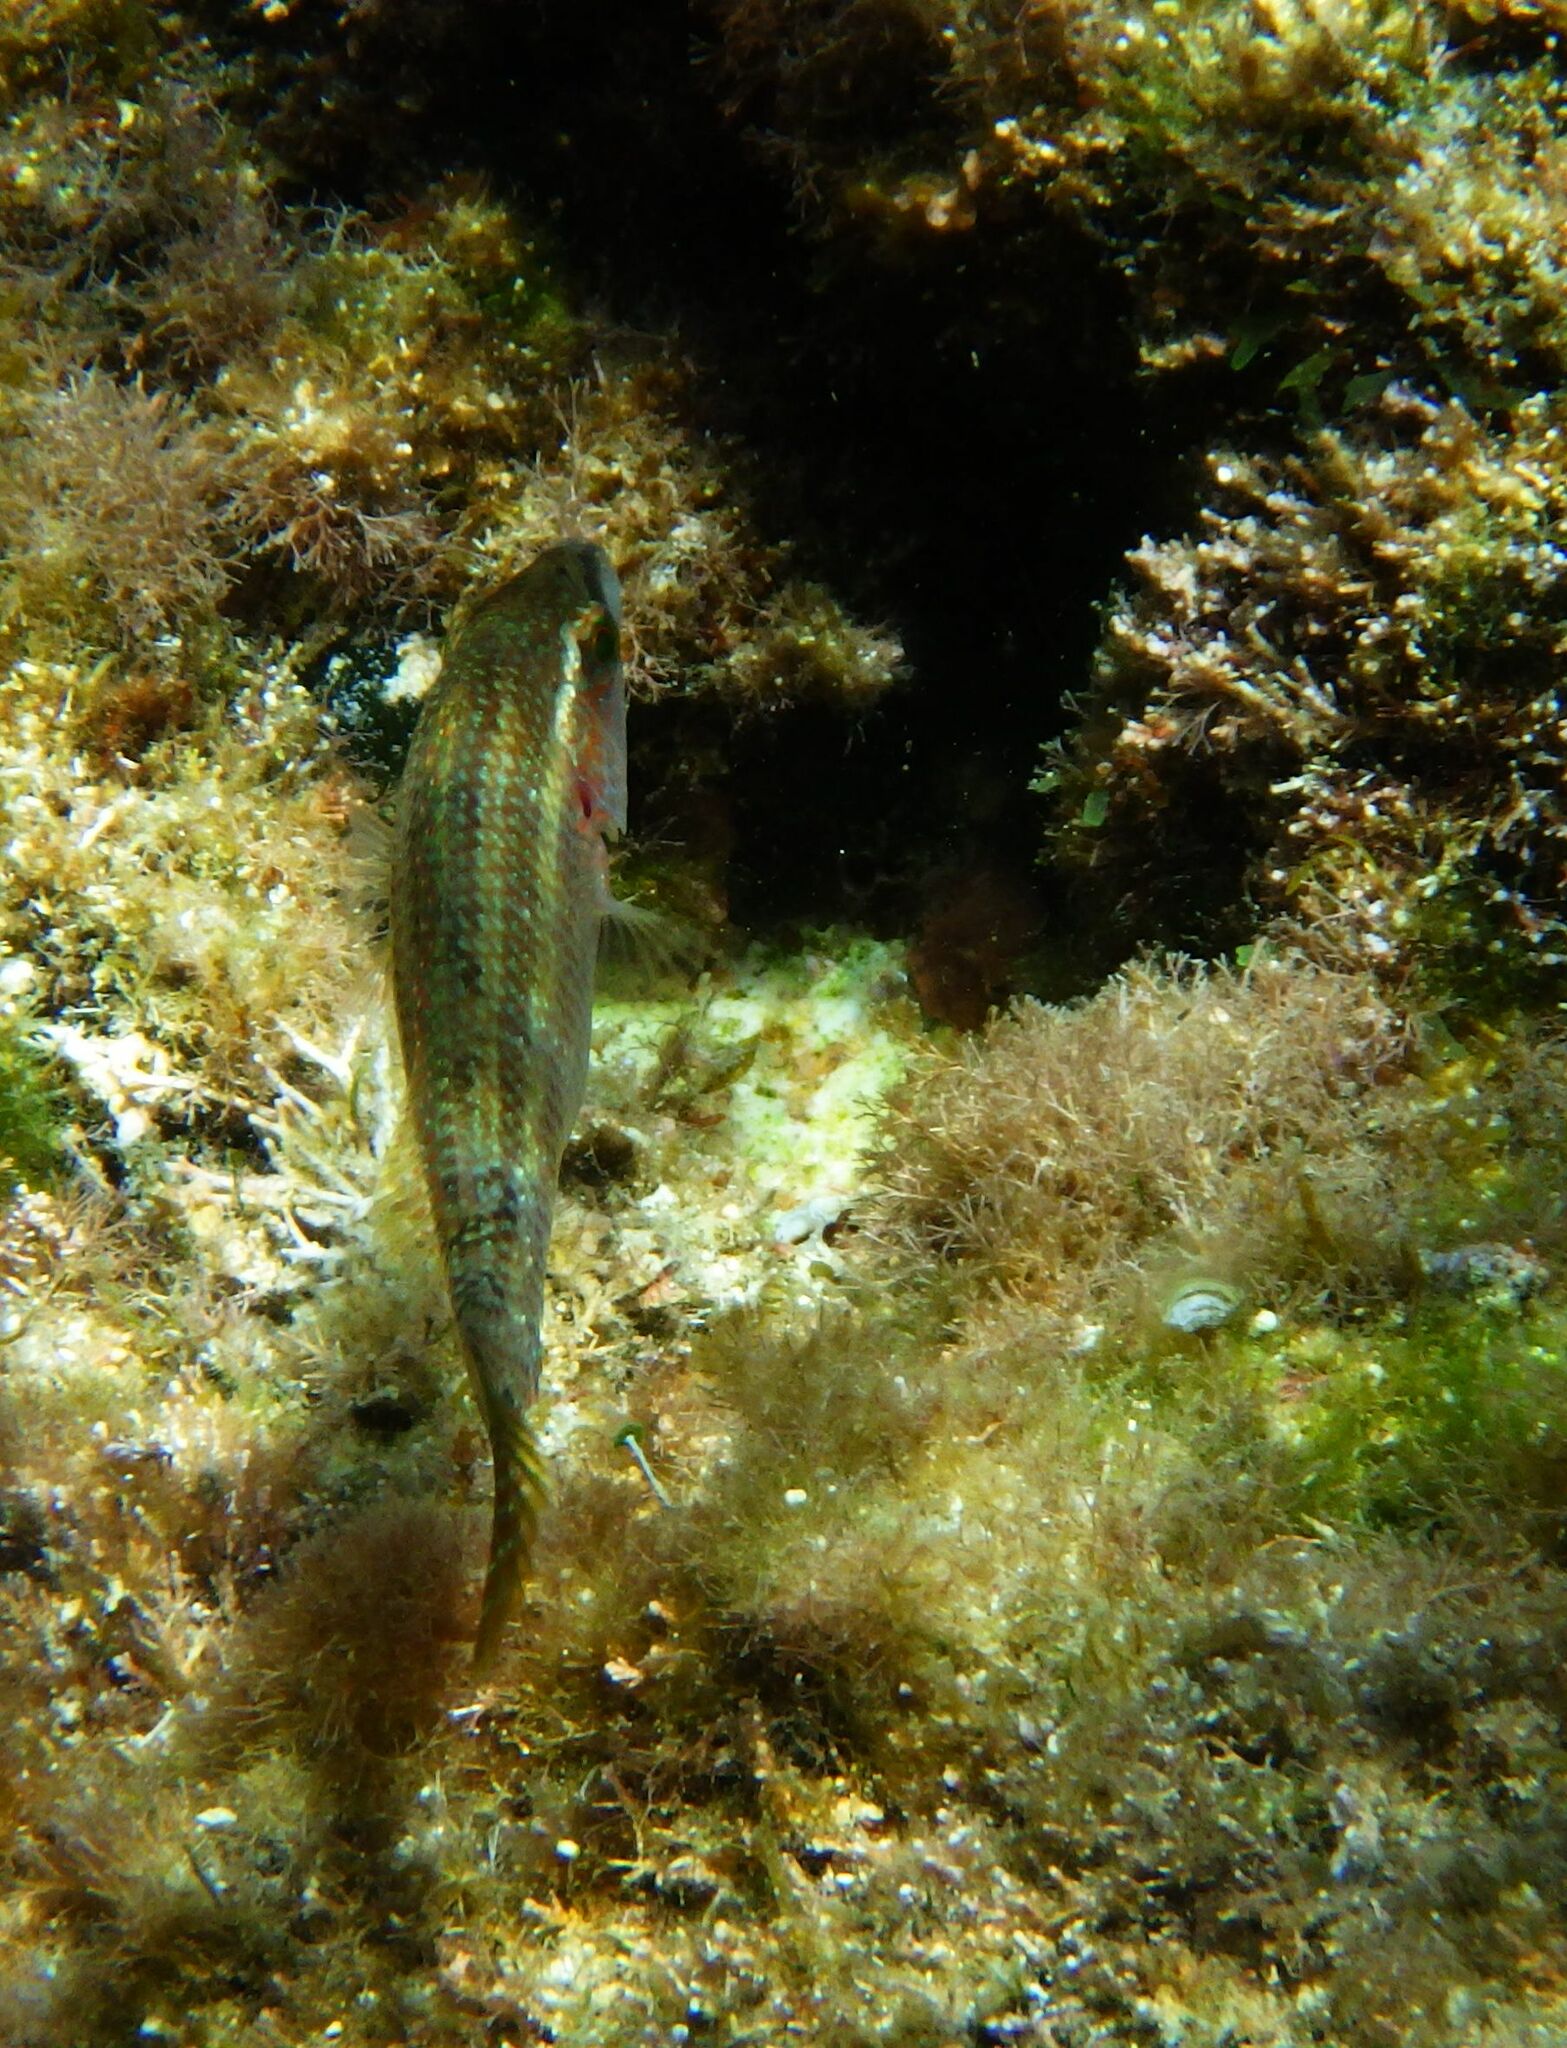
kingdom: Animalia
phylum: Chordata
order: Perciformes
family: Labridae
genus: Symphodus
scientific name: Symphodus tinca
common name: Peacock wrasse
